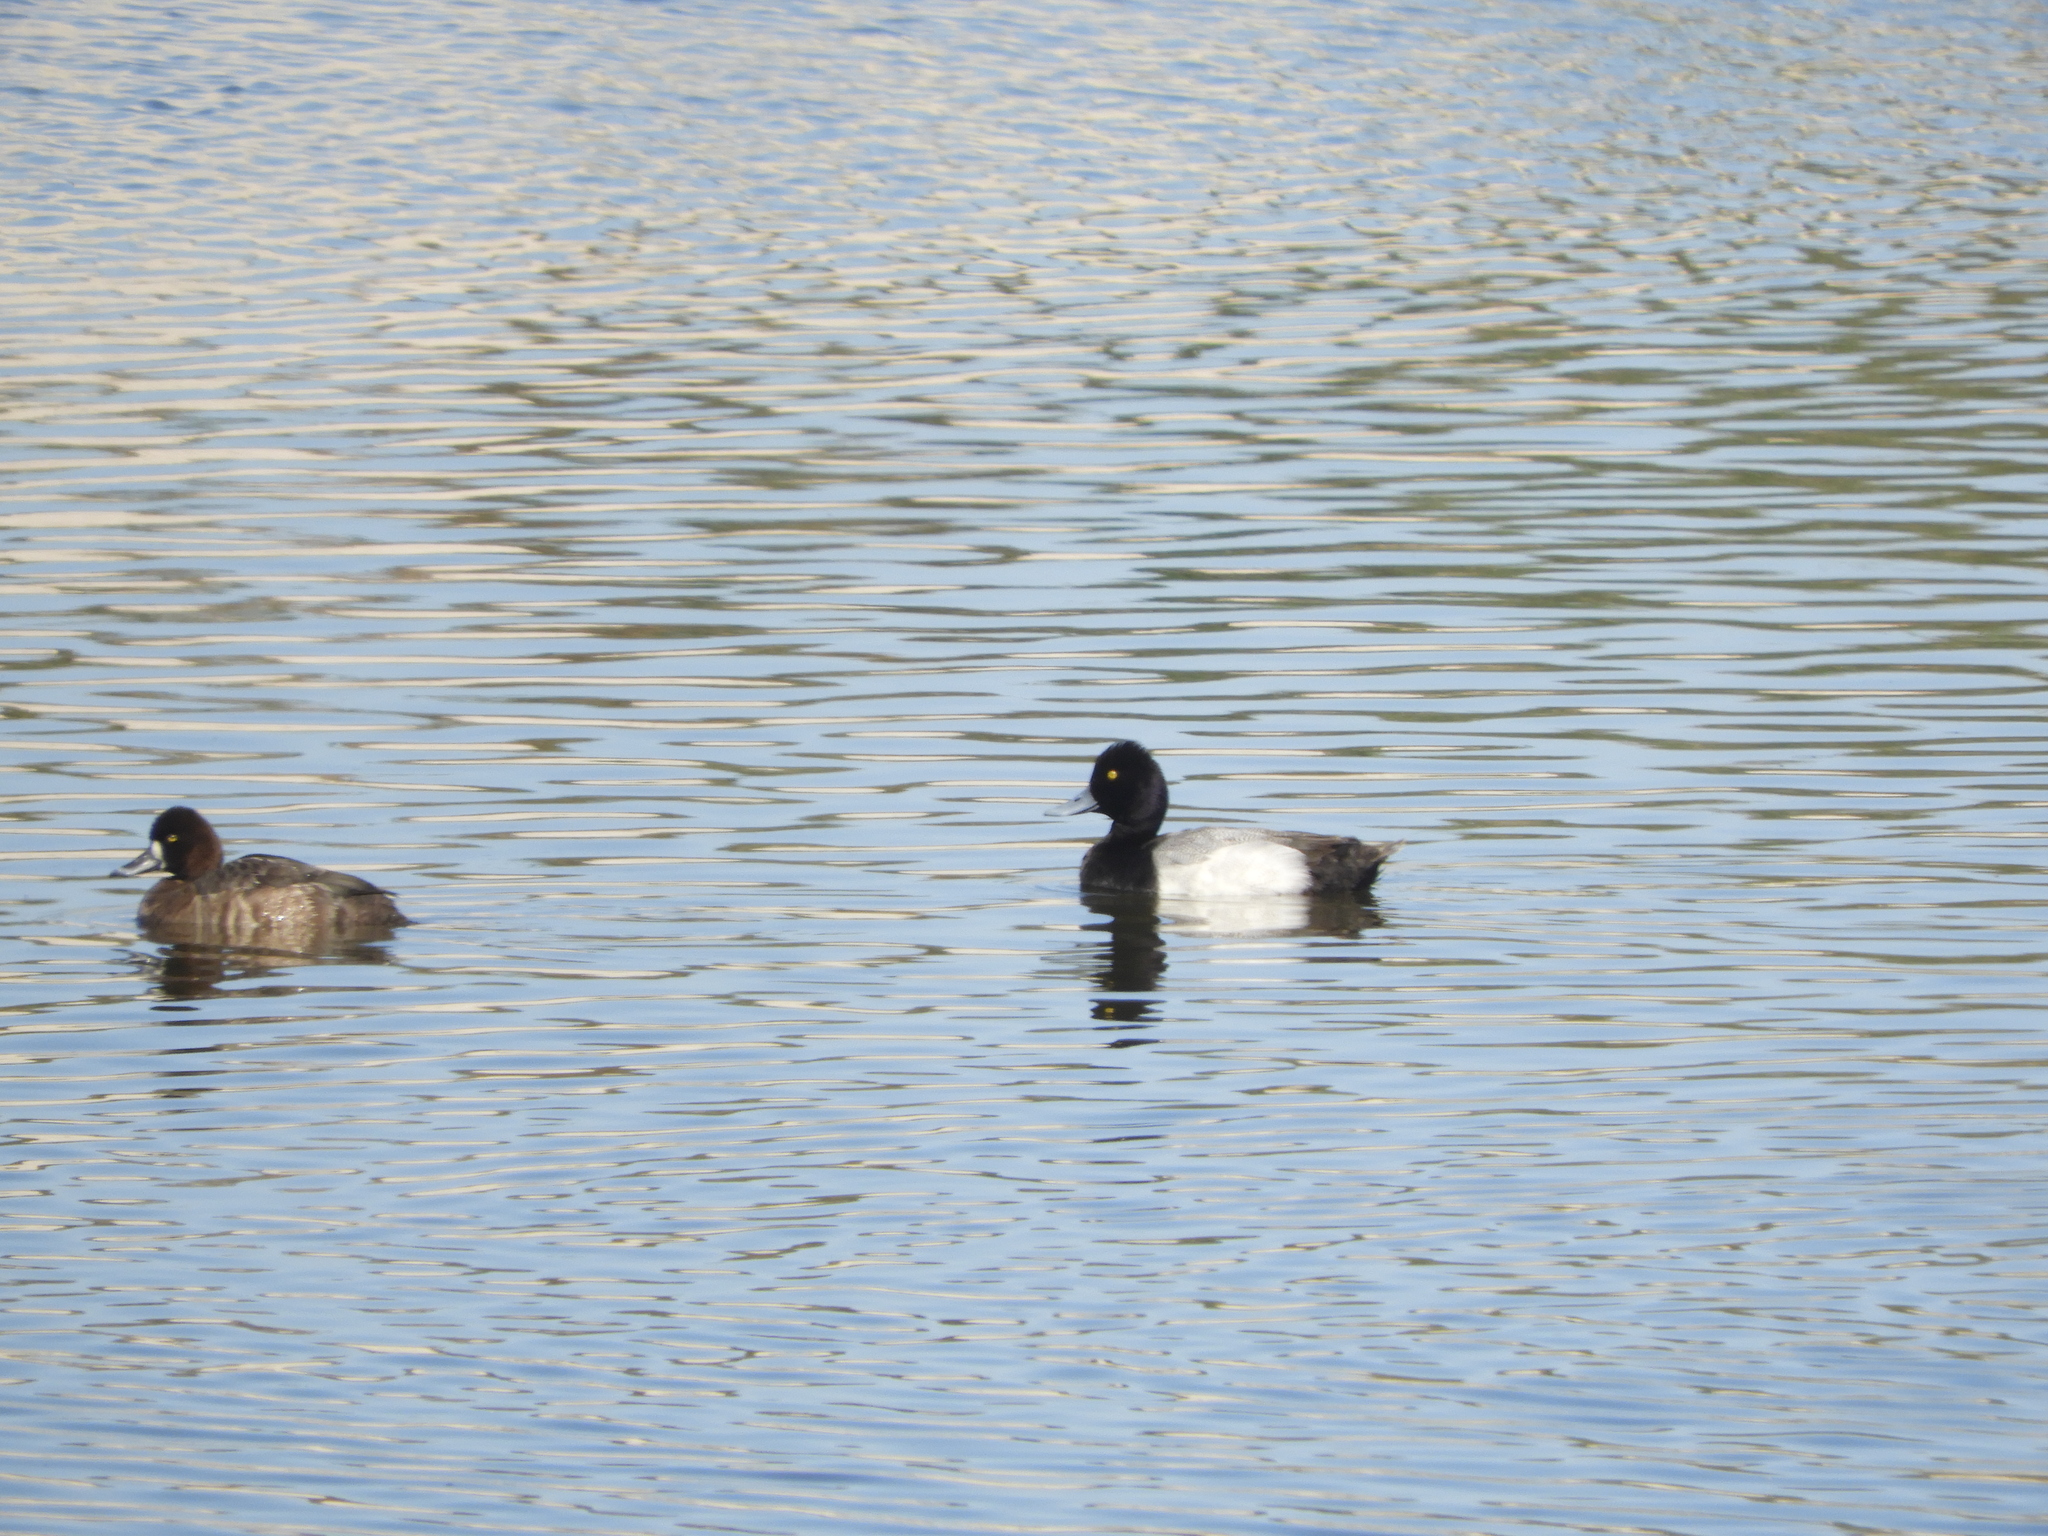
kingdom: Animalia
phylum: Chordata
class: Aves
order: Anseriformes
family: Anatidae
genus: Aythya
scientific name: Aythya affinis
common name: Lesser scaup
